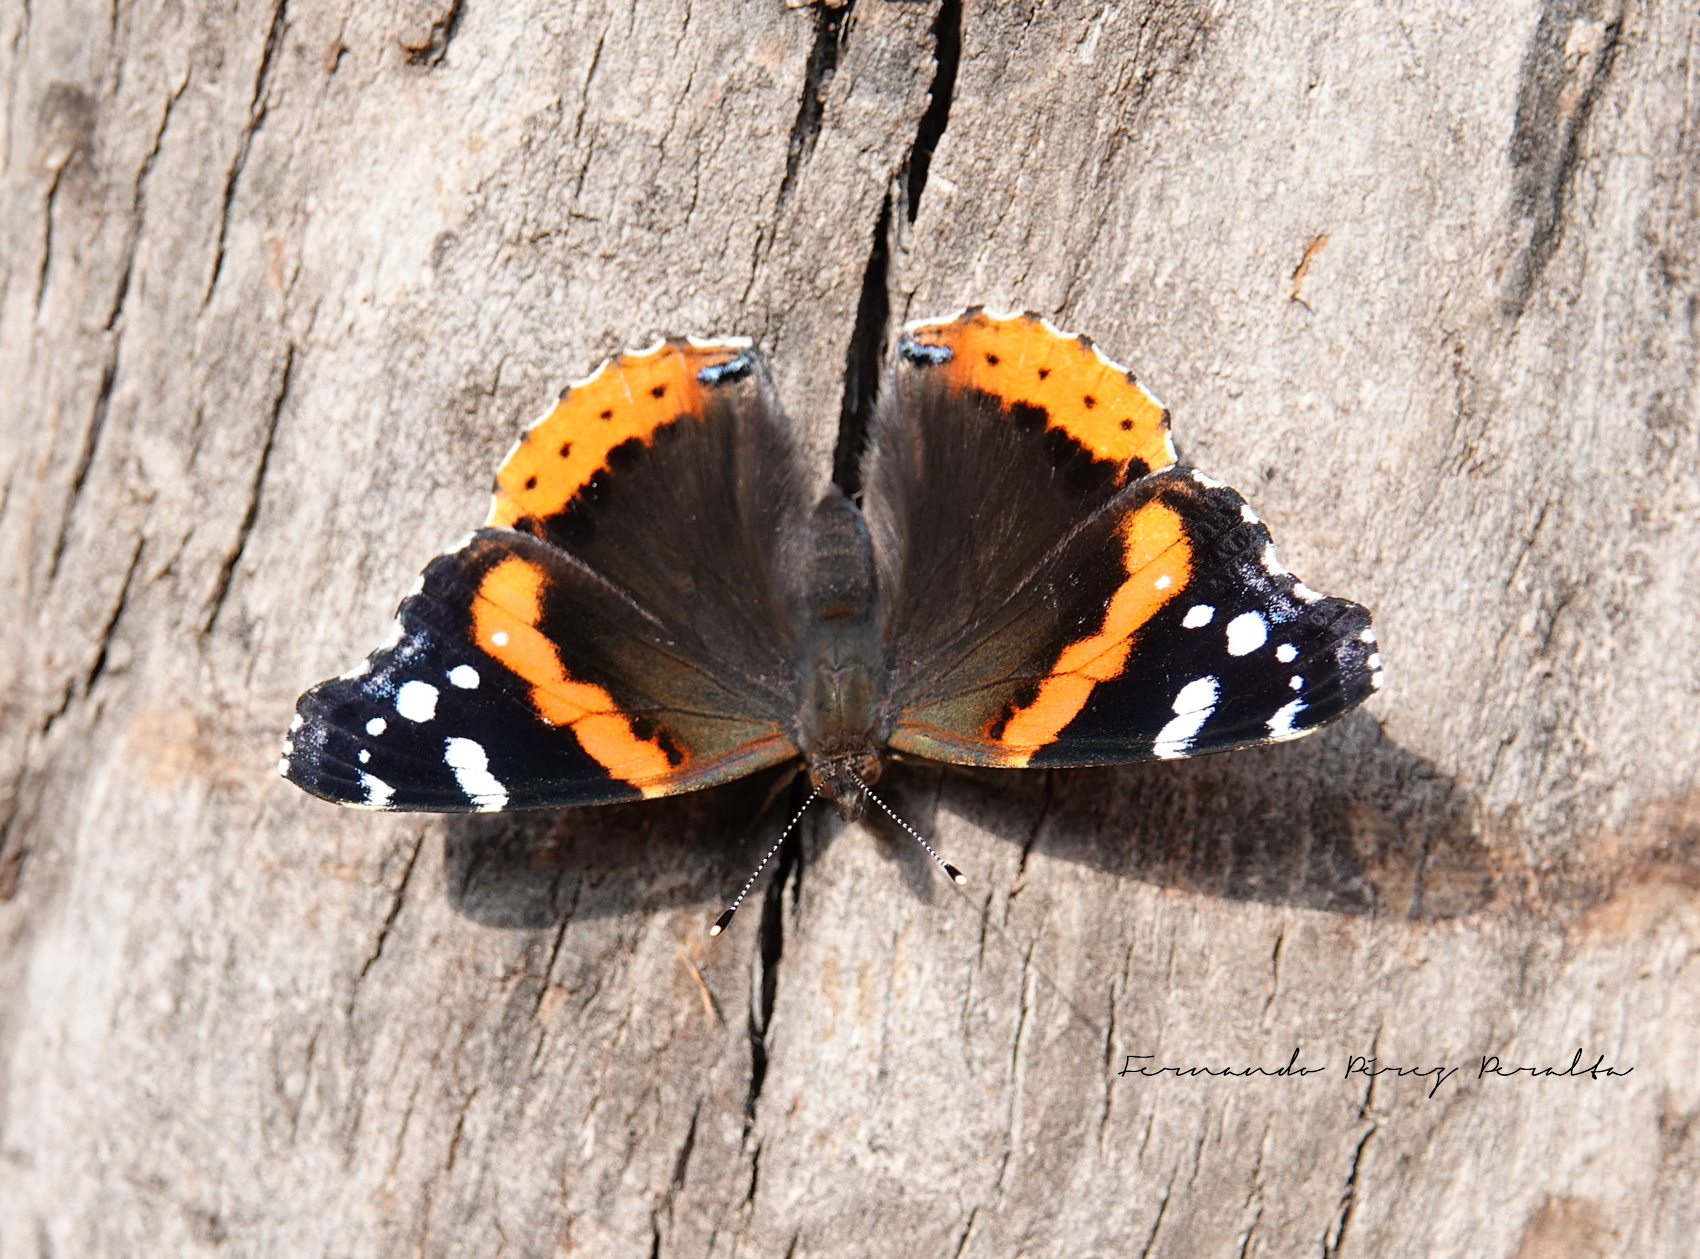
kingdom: Animalia
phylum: Arthropoda
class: Insecta
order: Lepidoptera
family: Nymphalidae
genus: Vanessa
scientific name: Vanessa atalanta
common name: Red admiral
